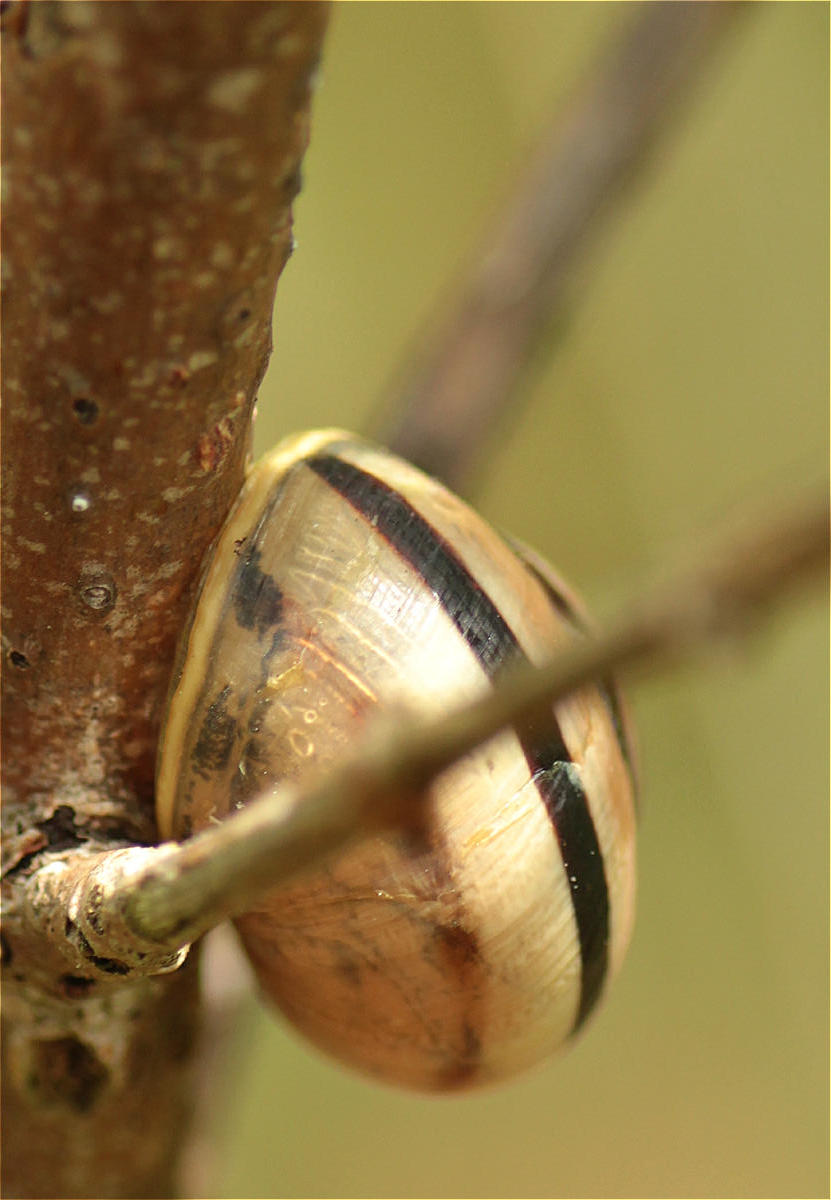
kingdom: Animalia
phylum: Mollusca
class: Gastropoda
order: Stylommatophora
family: Helicidae
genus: Cepaea
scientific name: Cepaea
